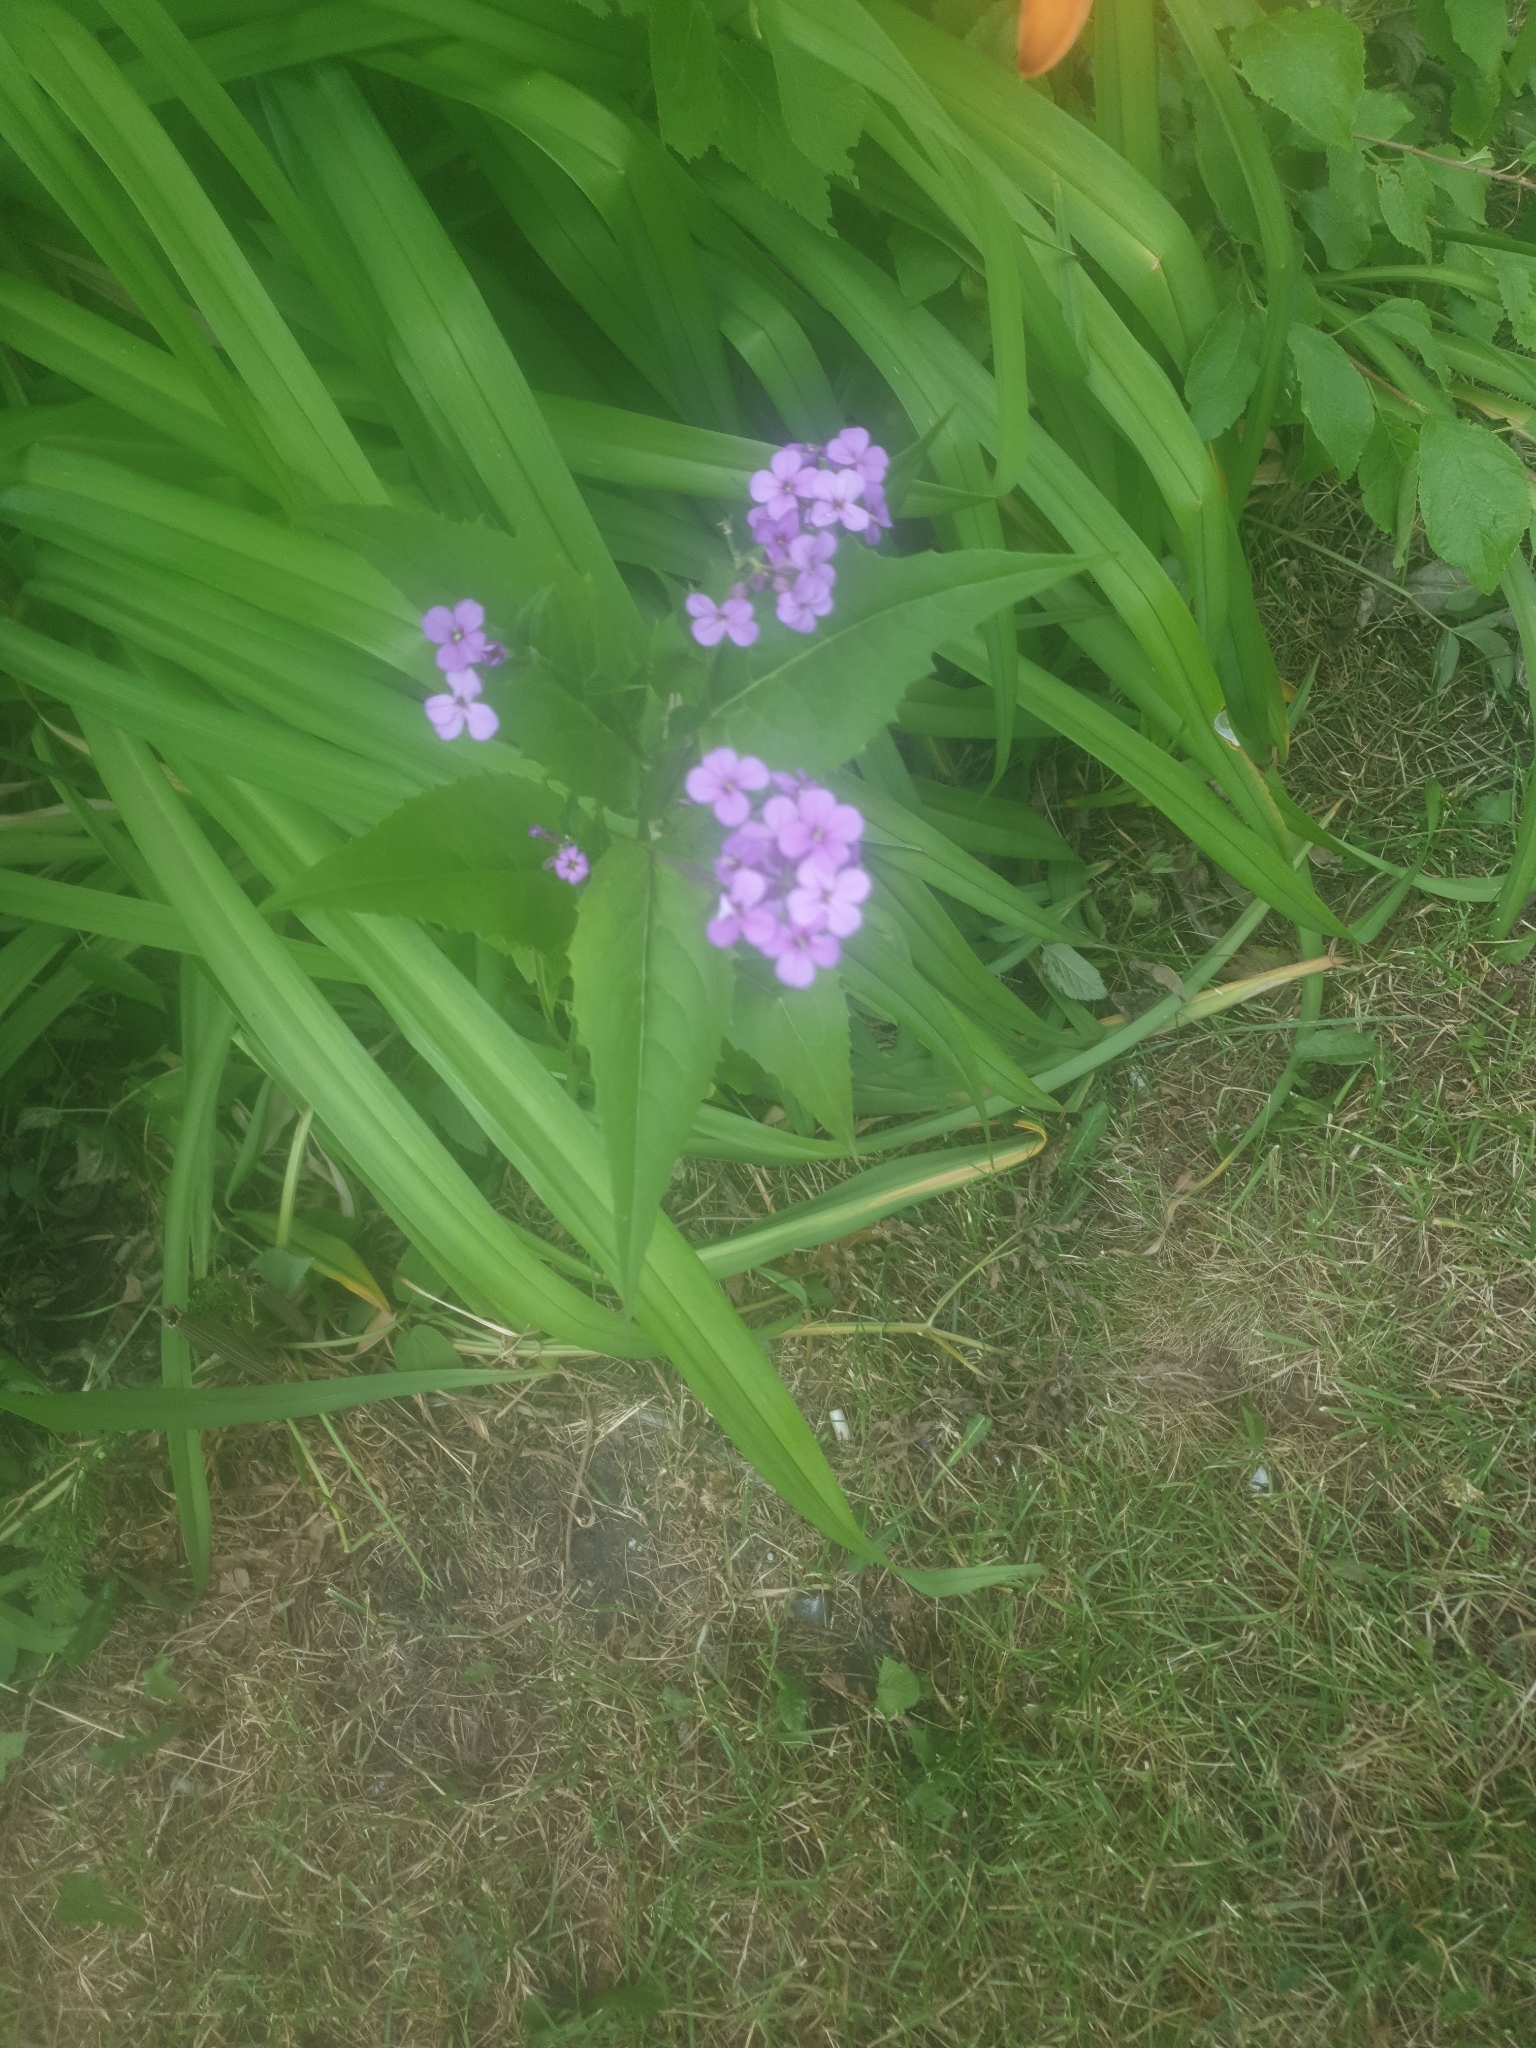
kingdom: Plantae
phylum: Tracheophyta
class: Magnoliopsida
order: Brassicales
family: Brassicaceae
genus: Hesperis
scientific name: Hesperis matronalis
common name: Dame's-violet
